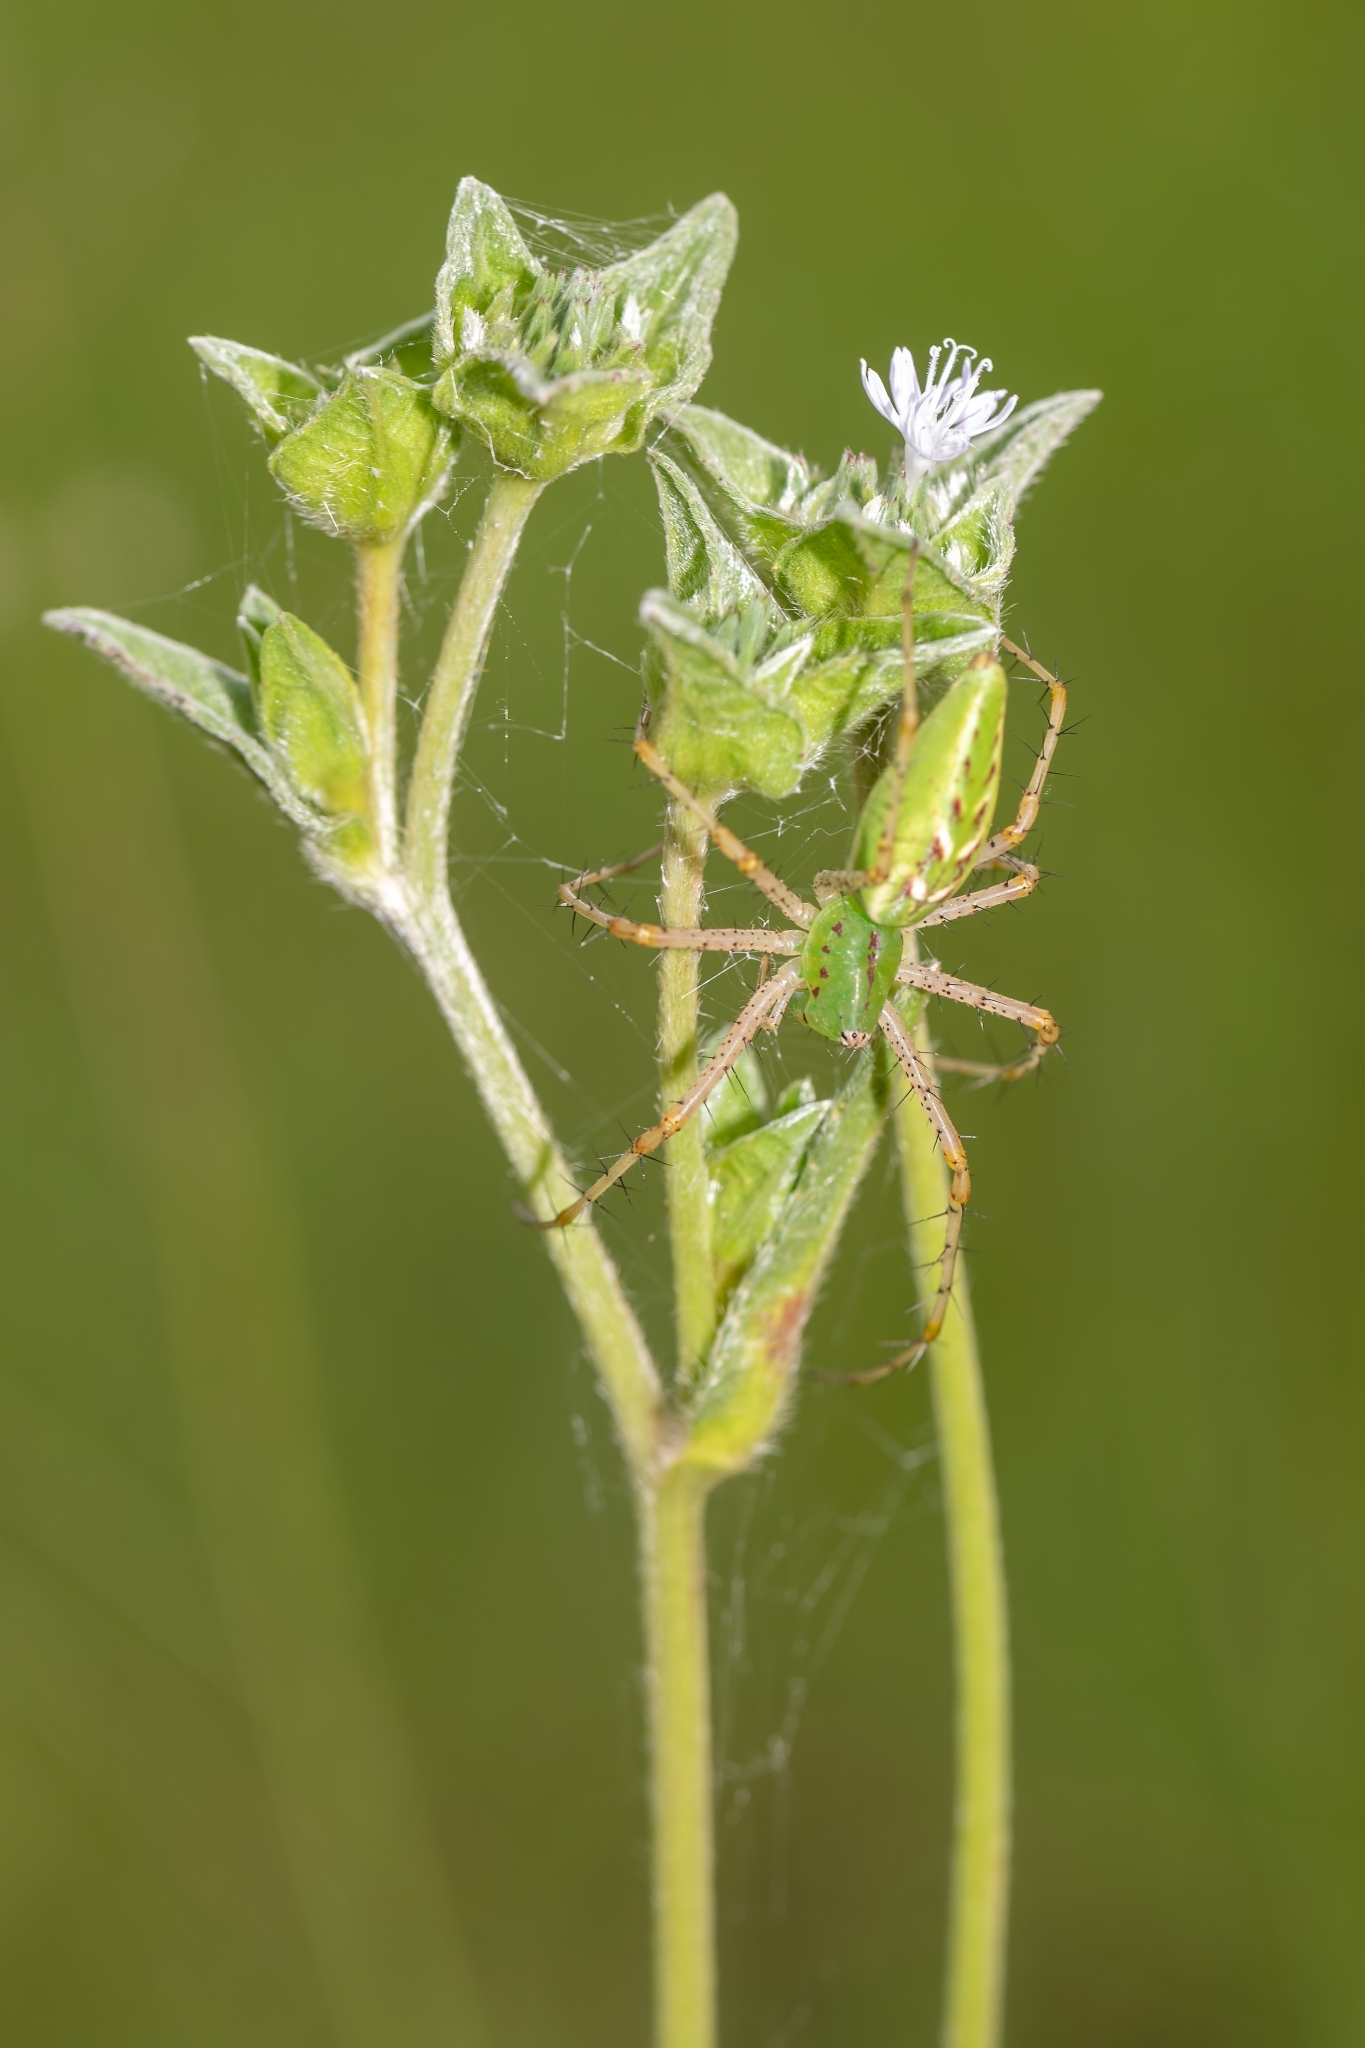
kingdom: Animalia
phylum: Arthropoda
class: Arachnida
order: Araneae
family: Oxyopidae
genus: Peucetia
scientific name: Peucetia viridans
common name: Lynx spiders
